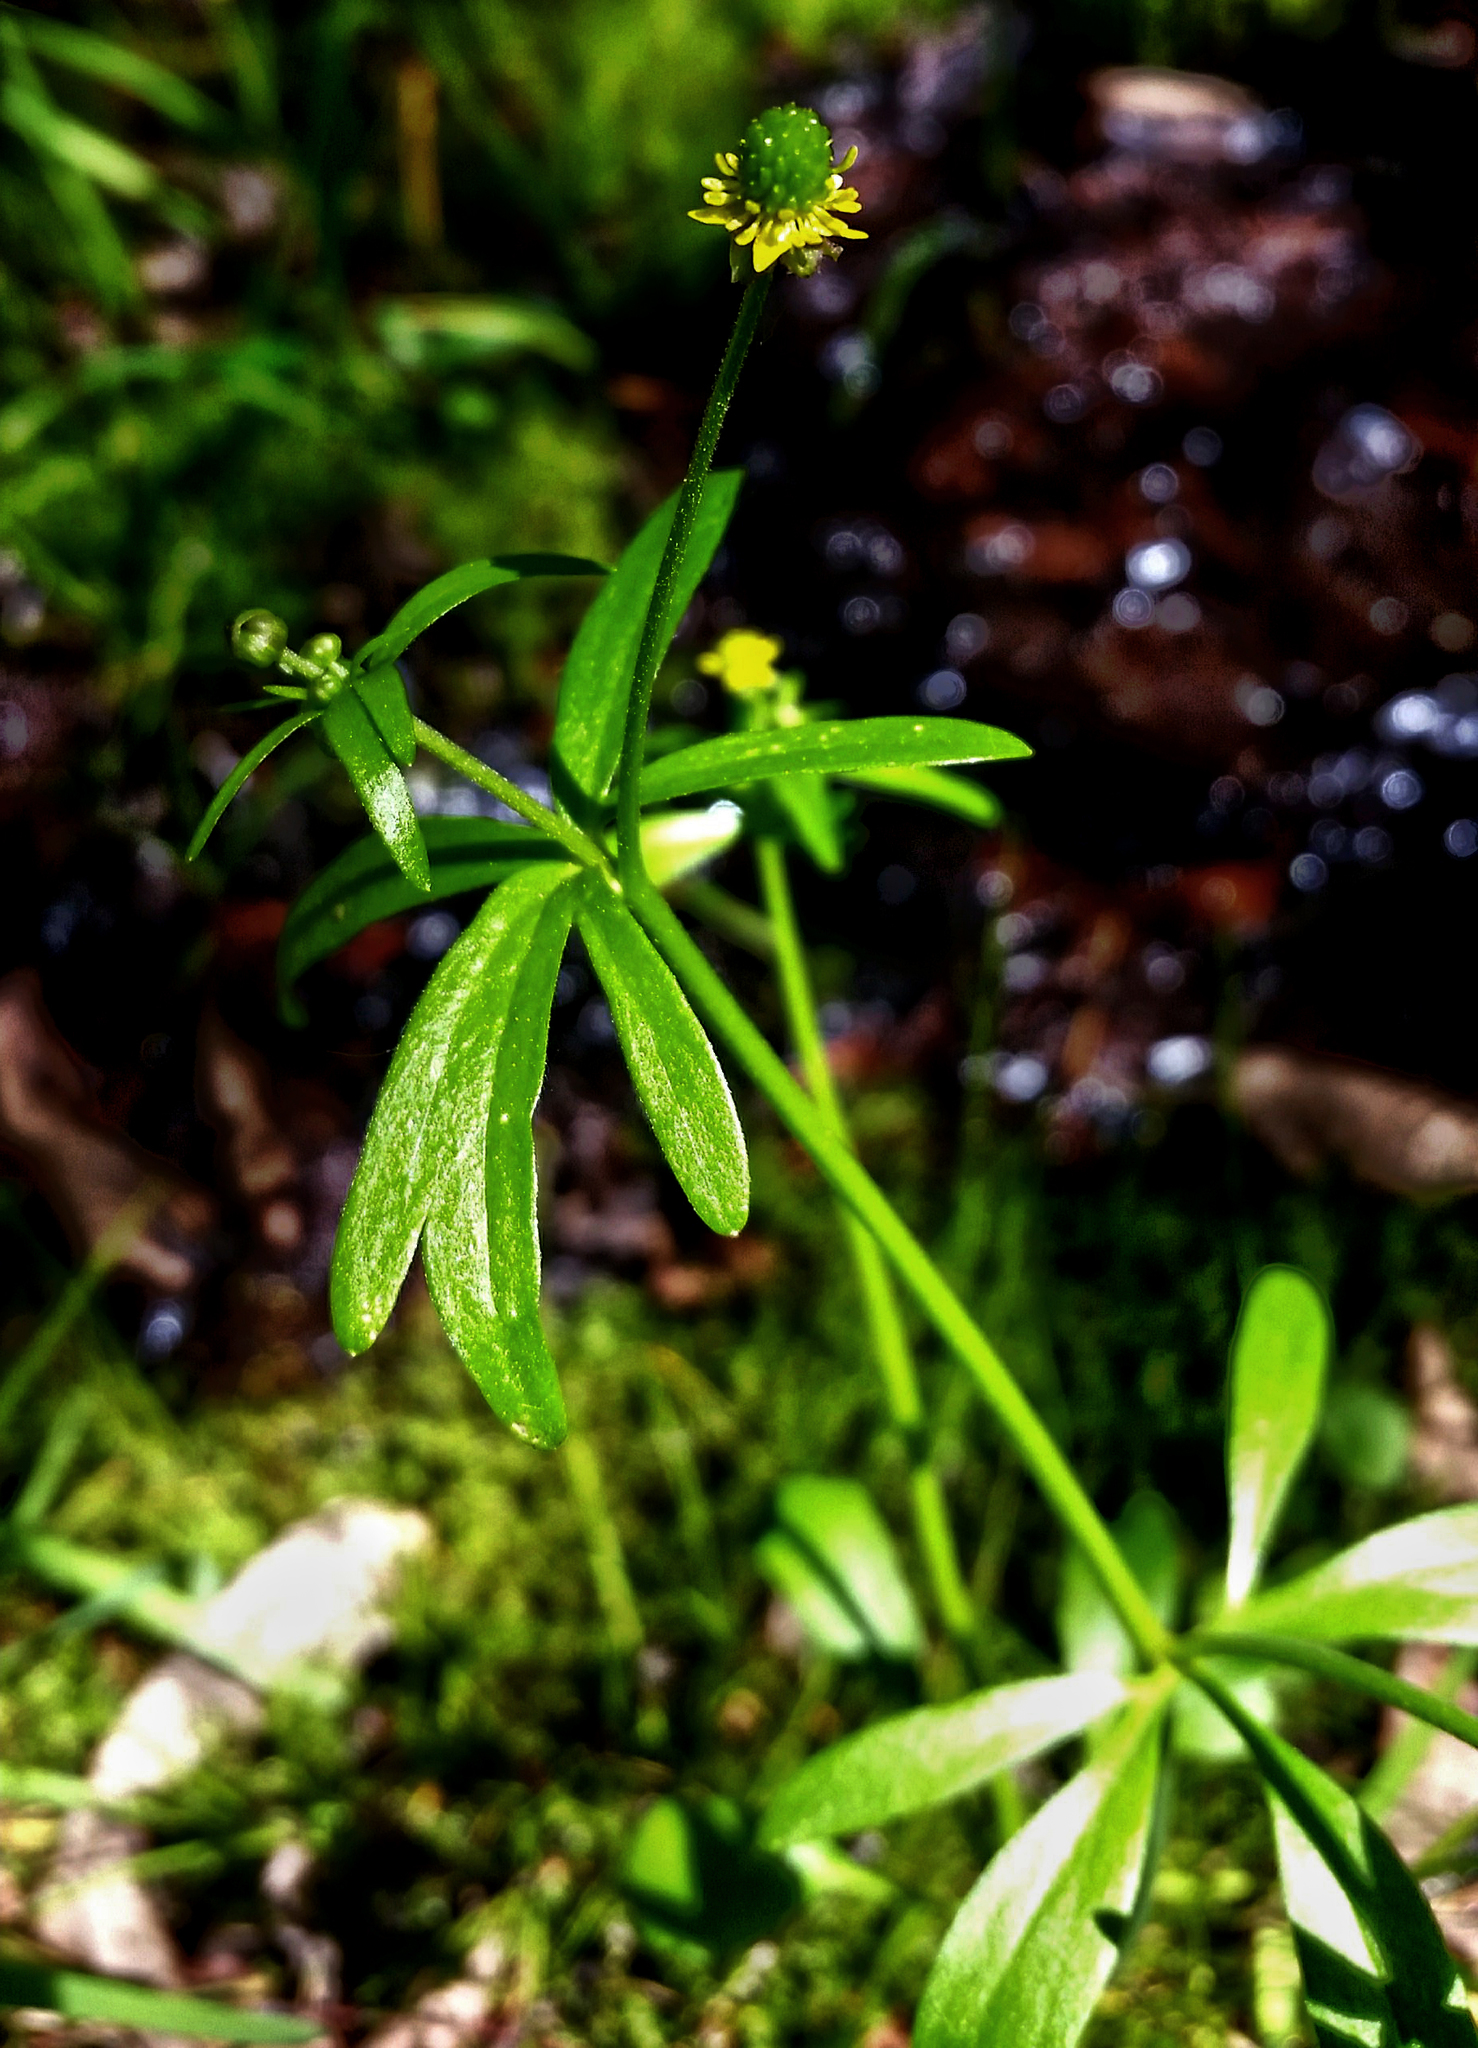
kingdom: Plantae
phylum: Tracheophyta
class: Magnoliopsida
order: Ranunculales
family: Ranunculaceae
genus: Ranunculus
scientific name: Ranunculus abortivus
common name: Early wood buttercup
